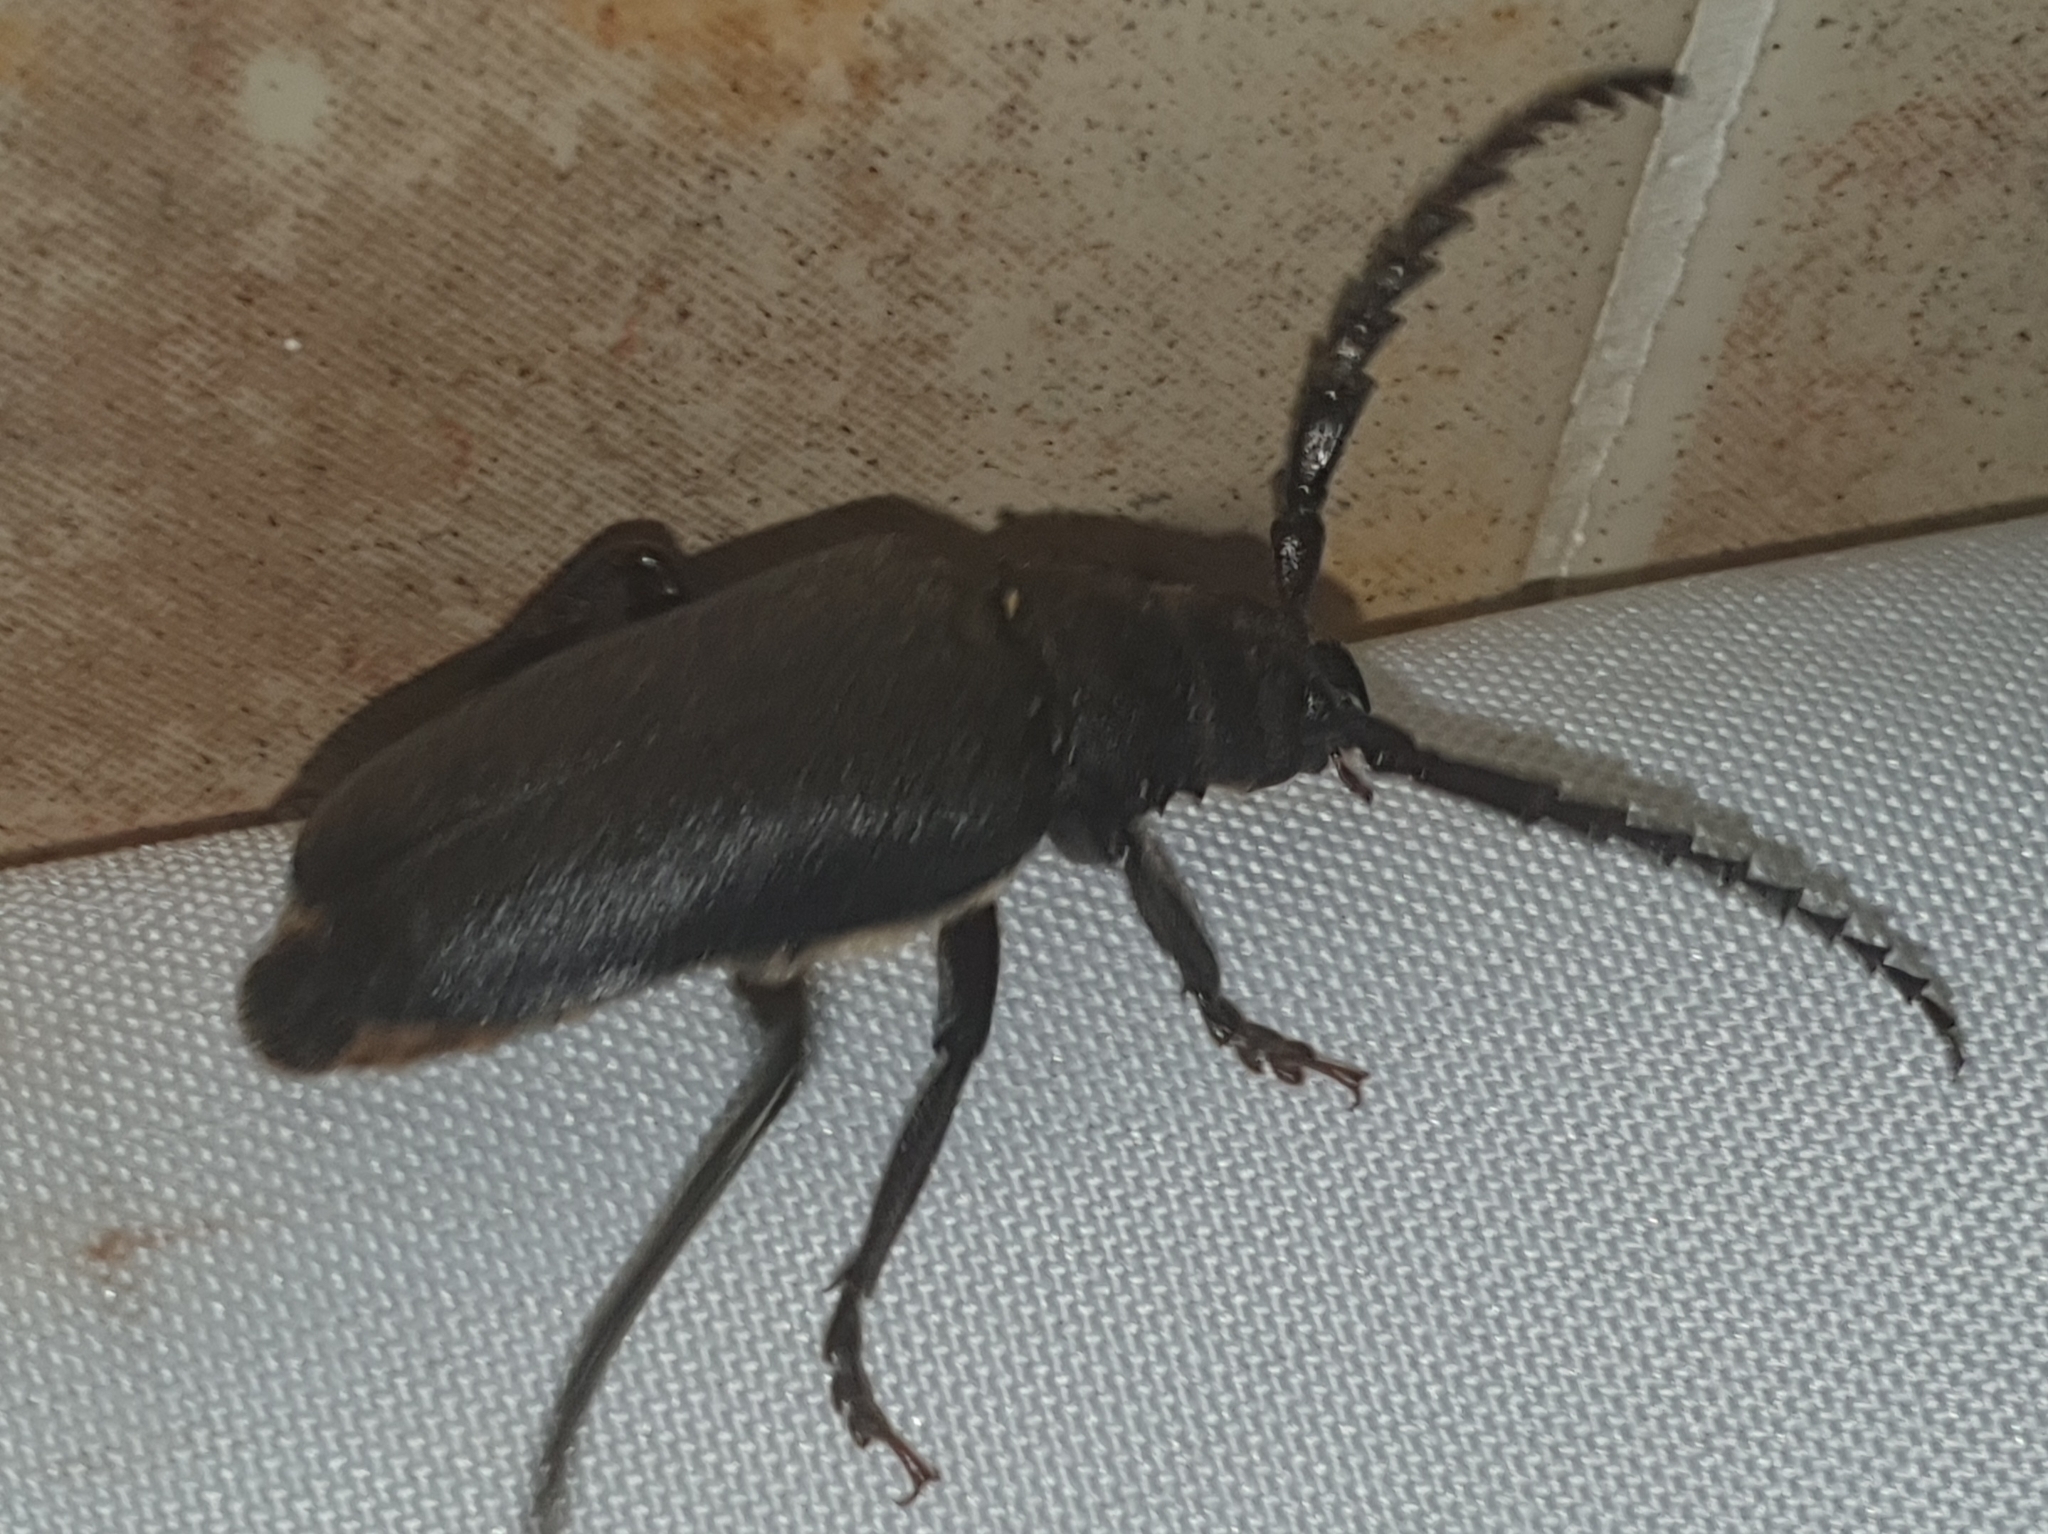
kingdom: Animalia
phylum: Arthropoda
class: Insecta
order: Coleoptera
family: Cerambycidae
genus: Prionus
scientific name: Prionus coriarius
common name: Tanner beetle
